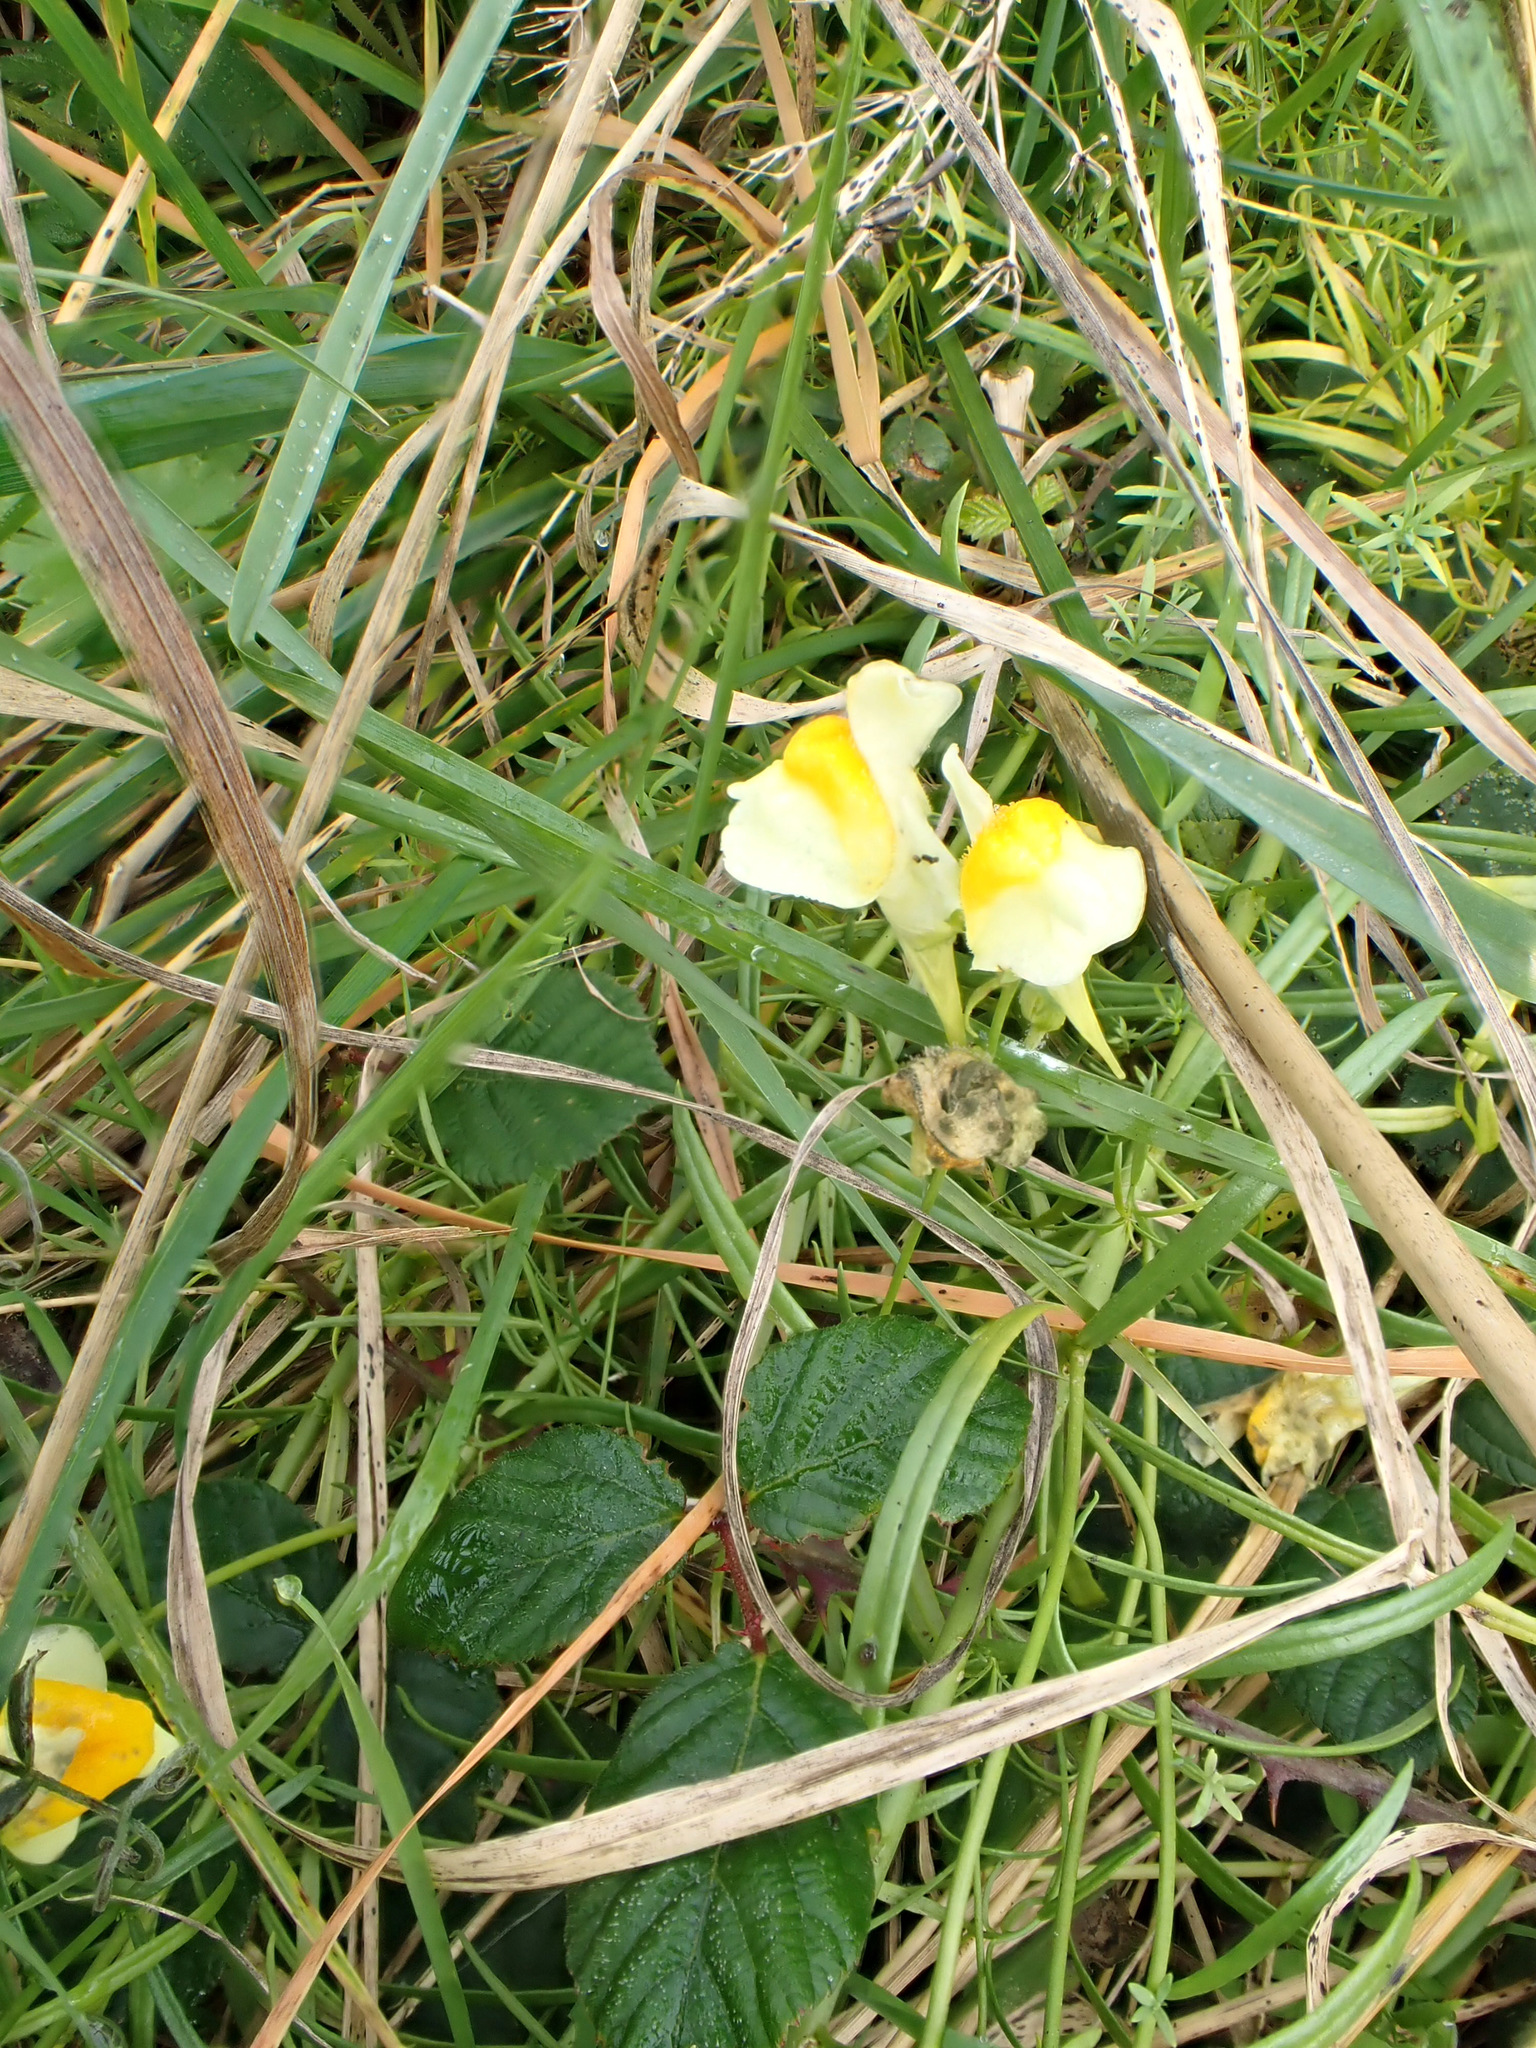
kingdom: Plantae
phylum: Tracheophyta
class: Magnoliopsida
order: Lamiales
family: Plantaginaceae
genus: Linaria
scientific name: Linaria vulgaris
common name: Butter and eggs
